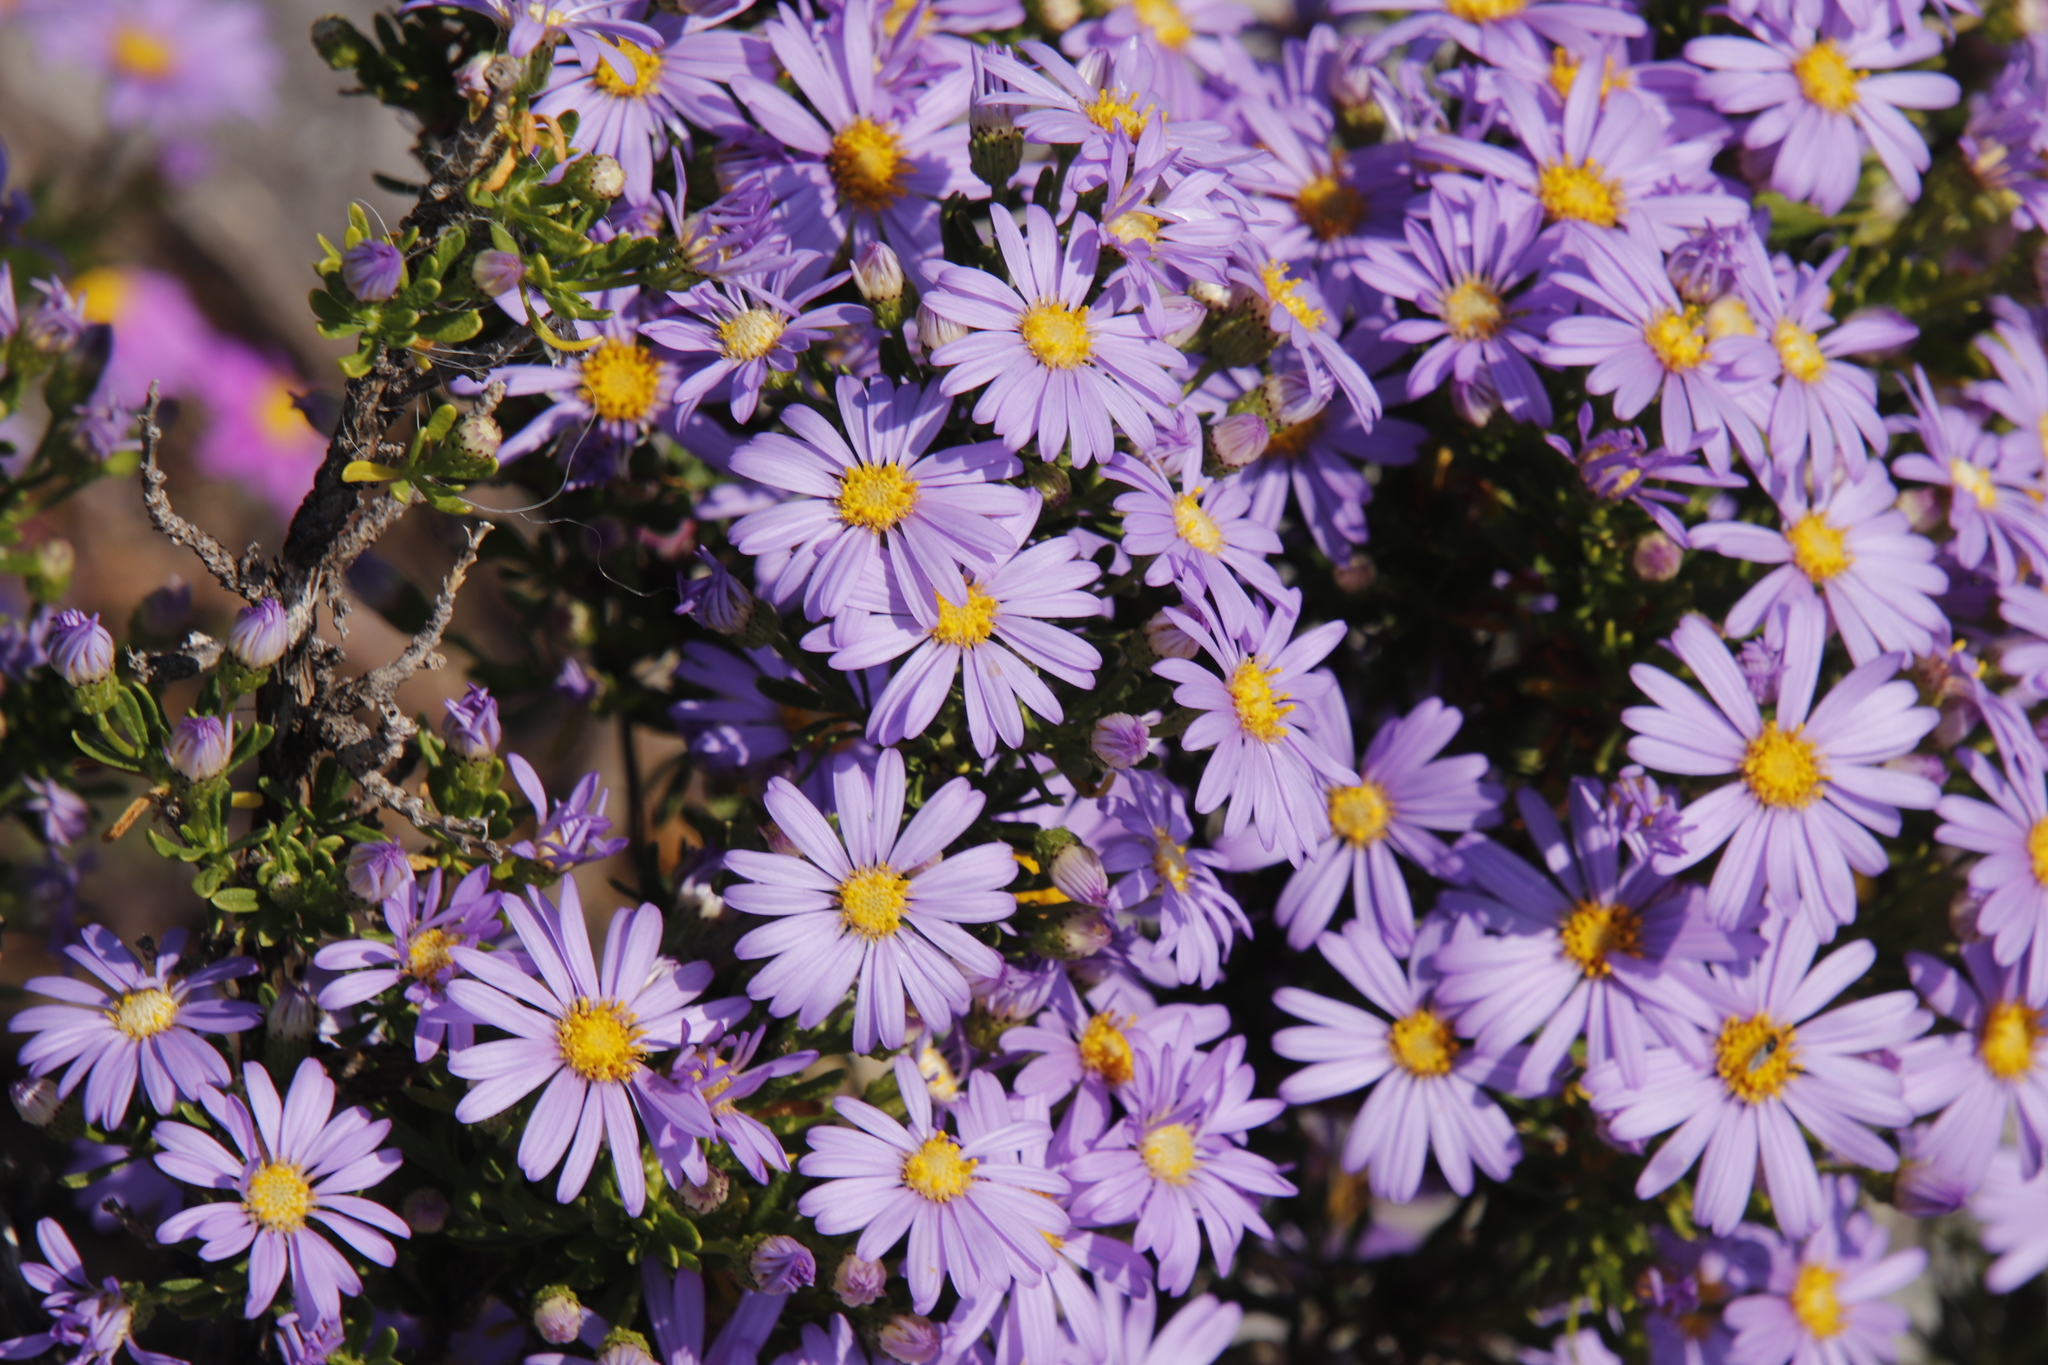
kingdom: Plantae
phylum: Tracheophyta
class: Magnoliopsida
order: Asterales
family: Asteraceae
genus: Felicia
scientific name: Felicia fruticosa
